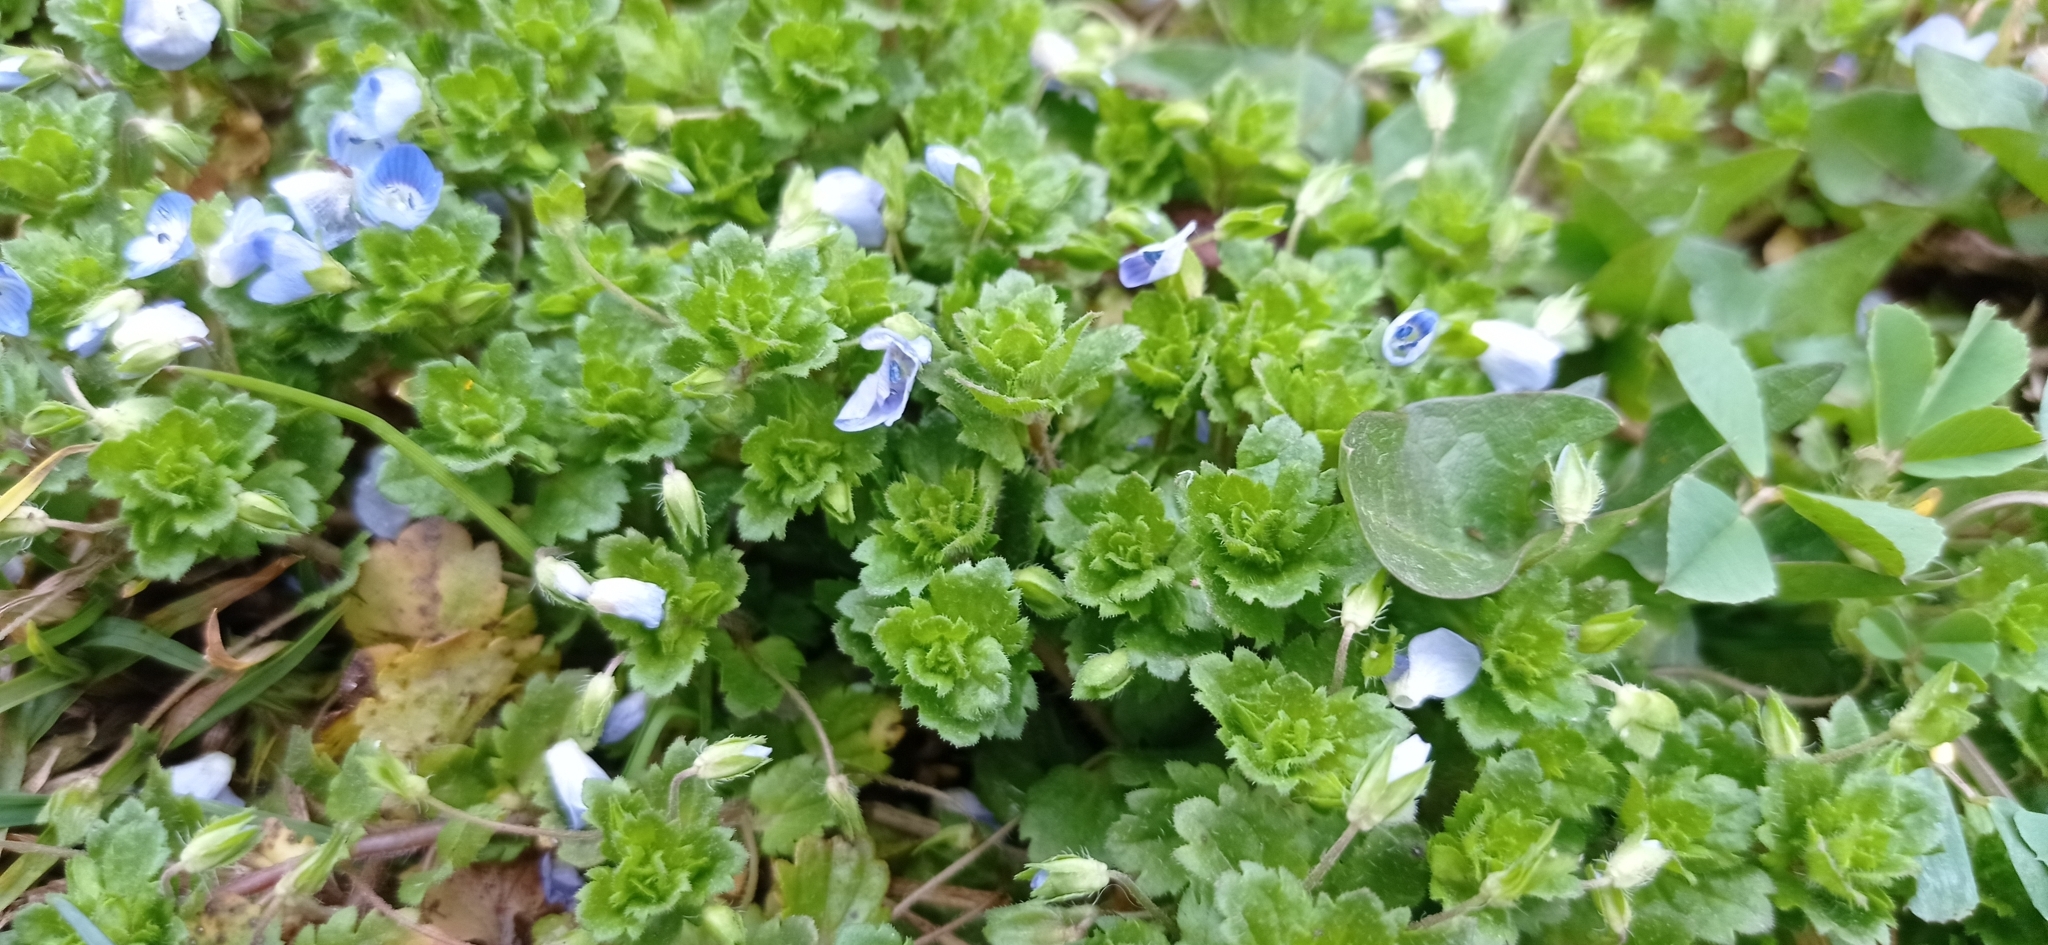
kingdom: Plantae
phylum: Tracheophyta
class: Magnoliopsida
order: Lamiales
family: Plantaginaceae
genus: Veronica
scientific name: Veronica persica
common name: Common field-speedwell
